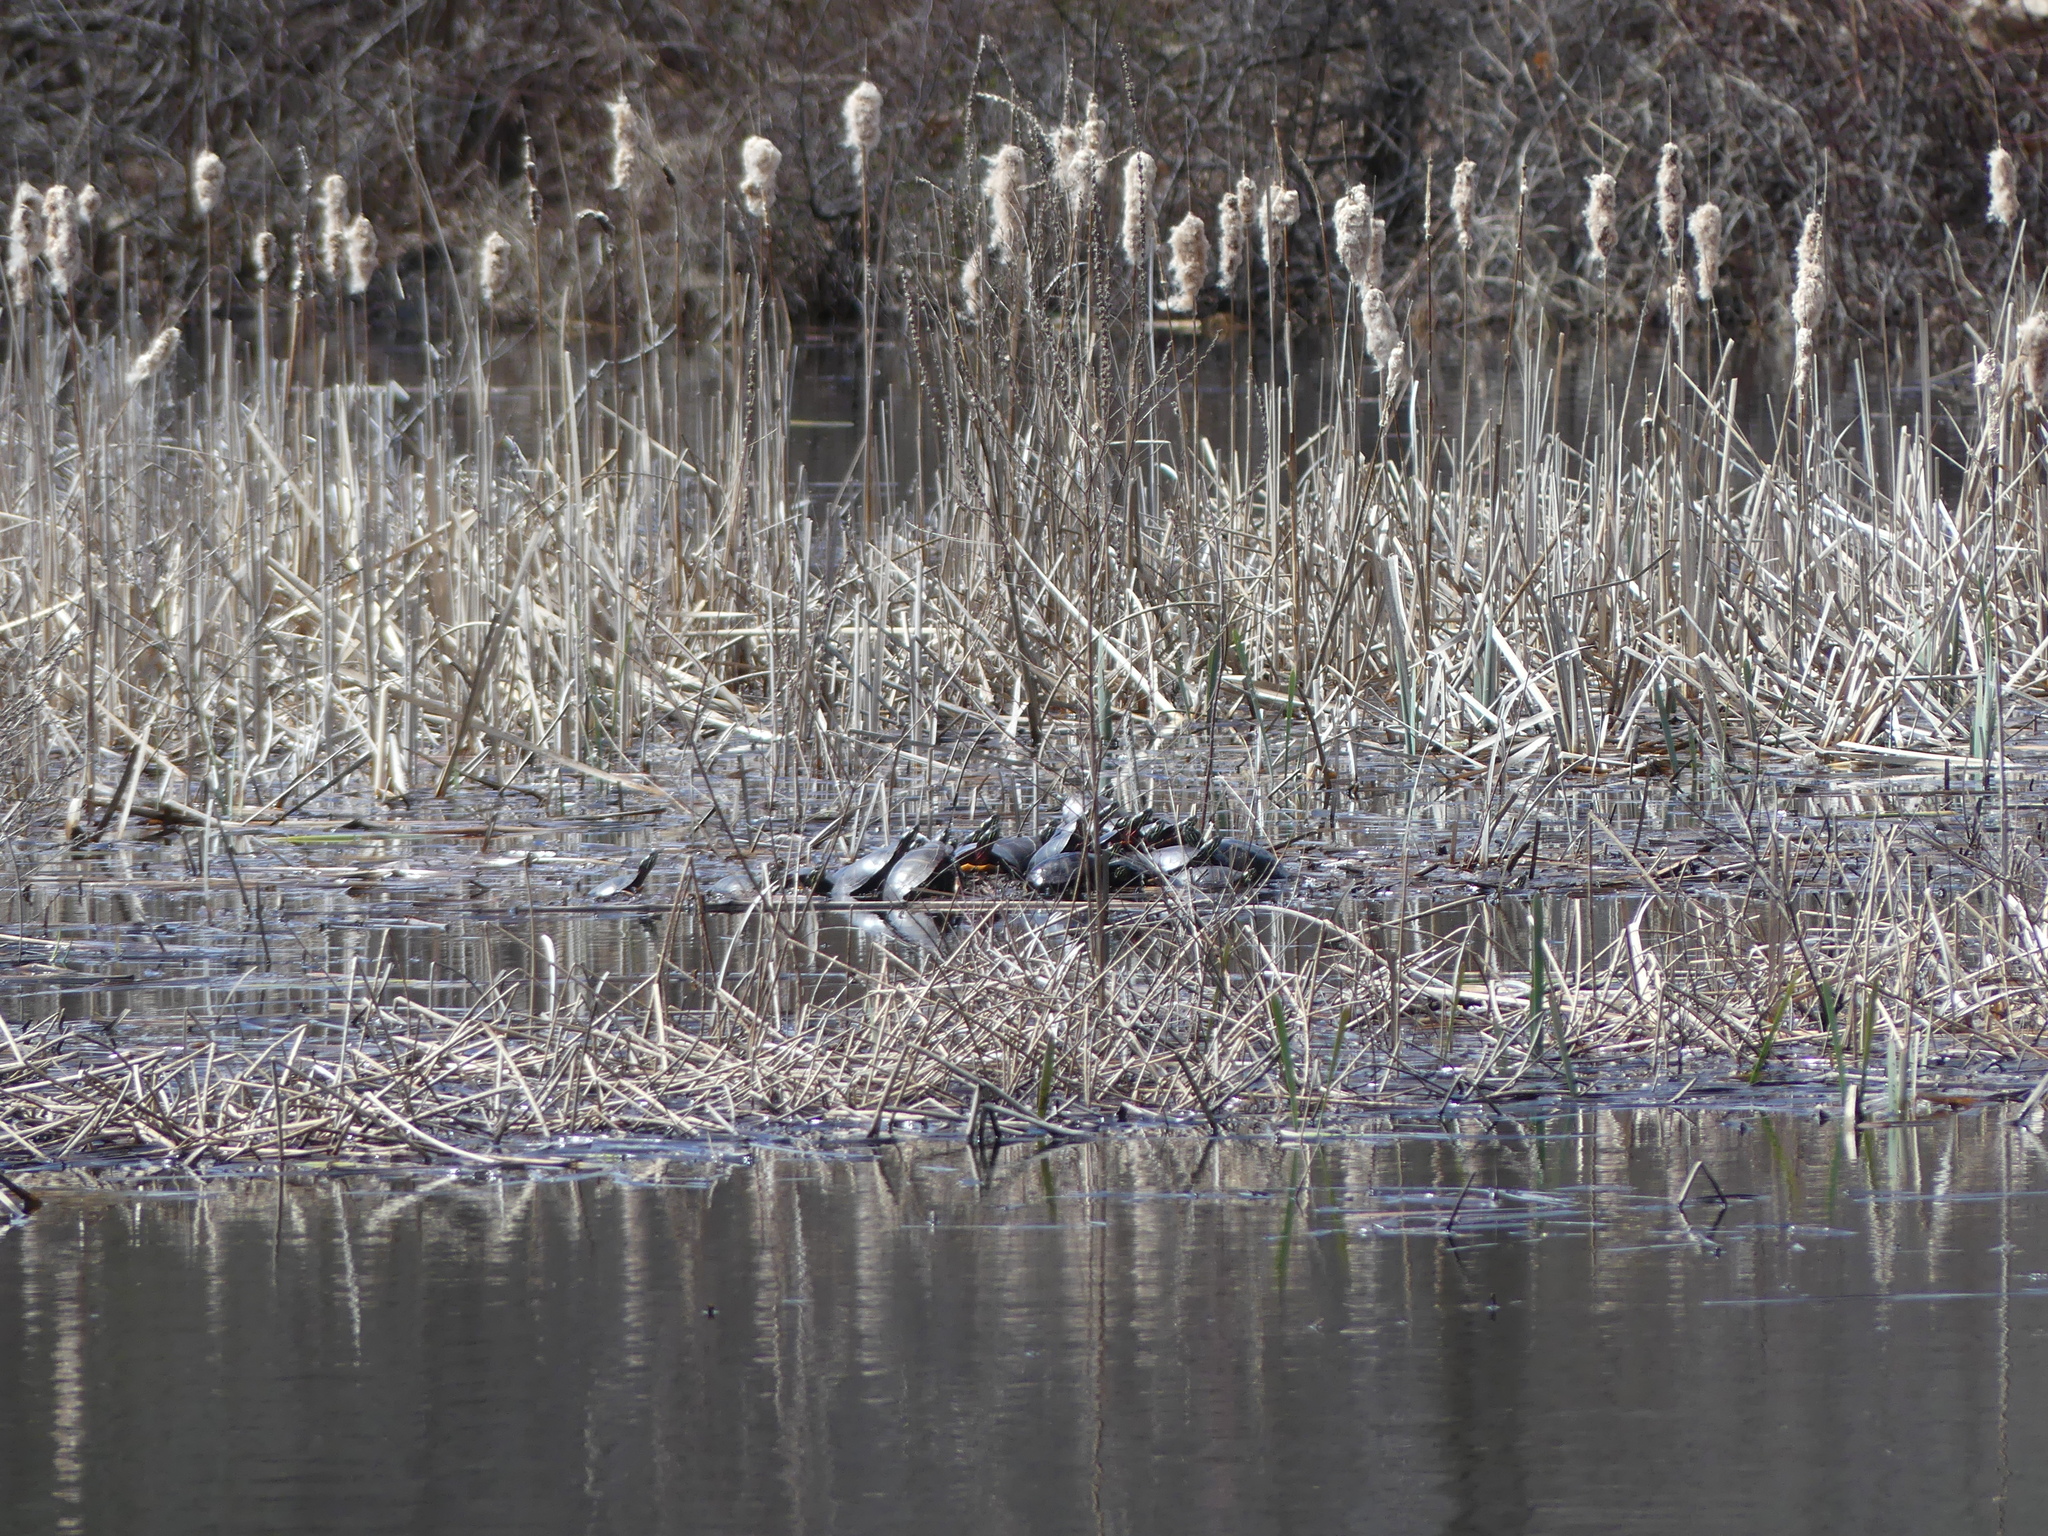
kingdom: Animalia
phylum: Chordata
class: Testudines
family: Emydidae
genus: Chrysemys
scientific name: Chrysemys picta
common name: Painted turtle
